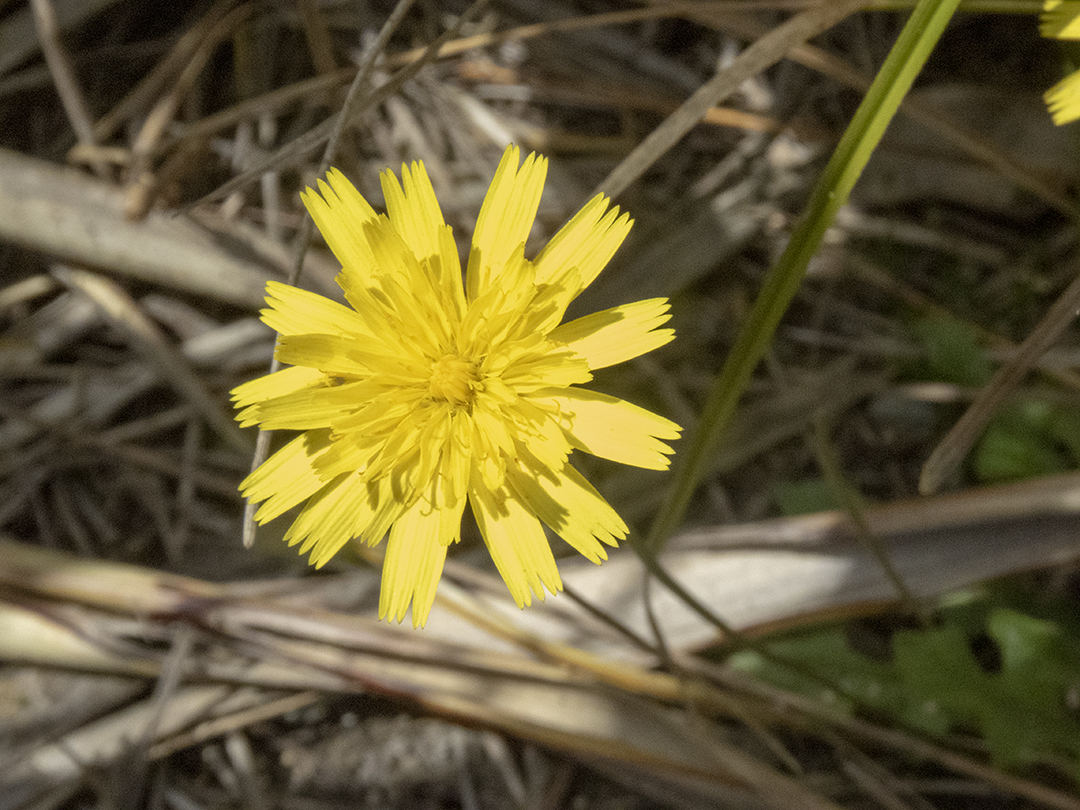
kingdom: Plantae
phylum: Tracheophyta
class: Magnoliopsida
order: Asterales
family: Asteraceae
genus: Hypochaeris
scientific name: Hypochaeris radicata
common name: Flatweed
